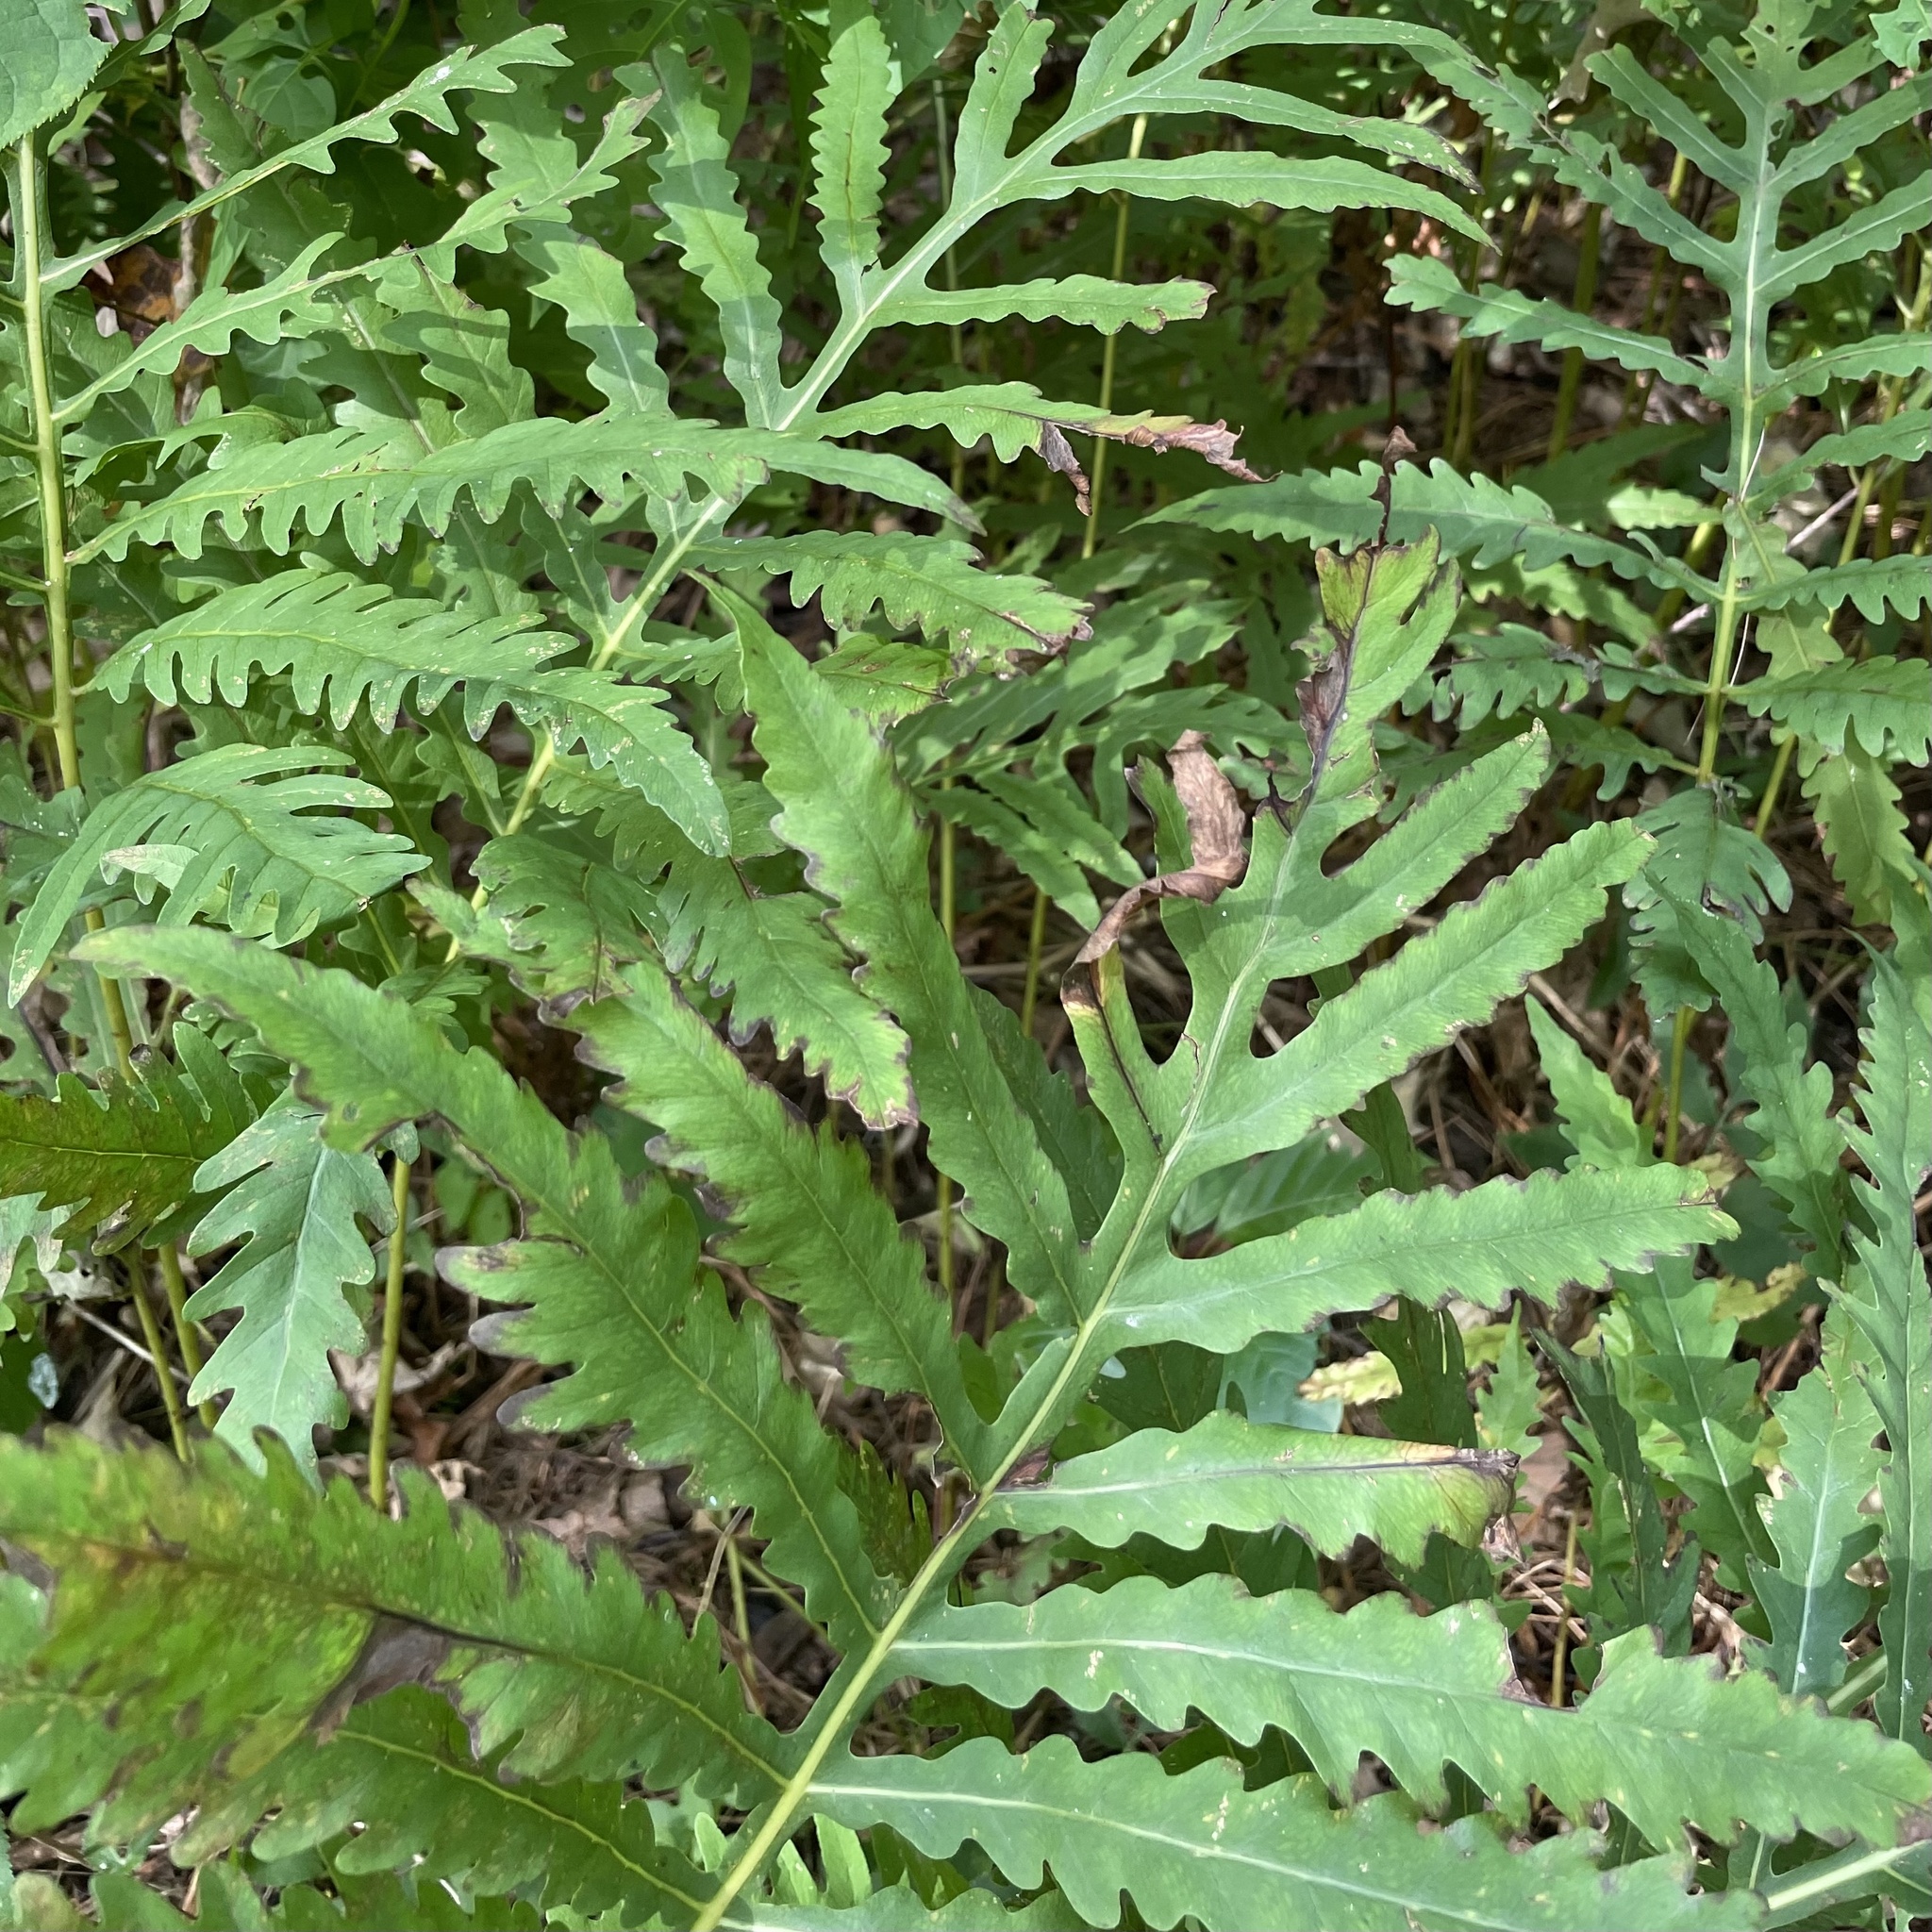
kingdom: Plantae
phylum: Tracheophyta
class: Polypodiopsida
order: Polypodiales
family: Onocleaceae
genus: Onoclea
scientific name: Onoclea sensibilis
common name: Sensitive fern
